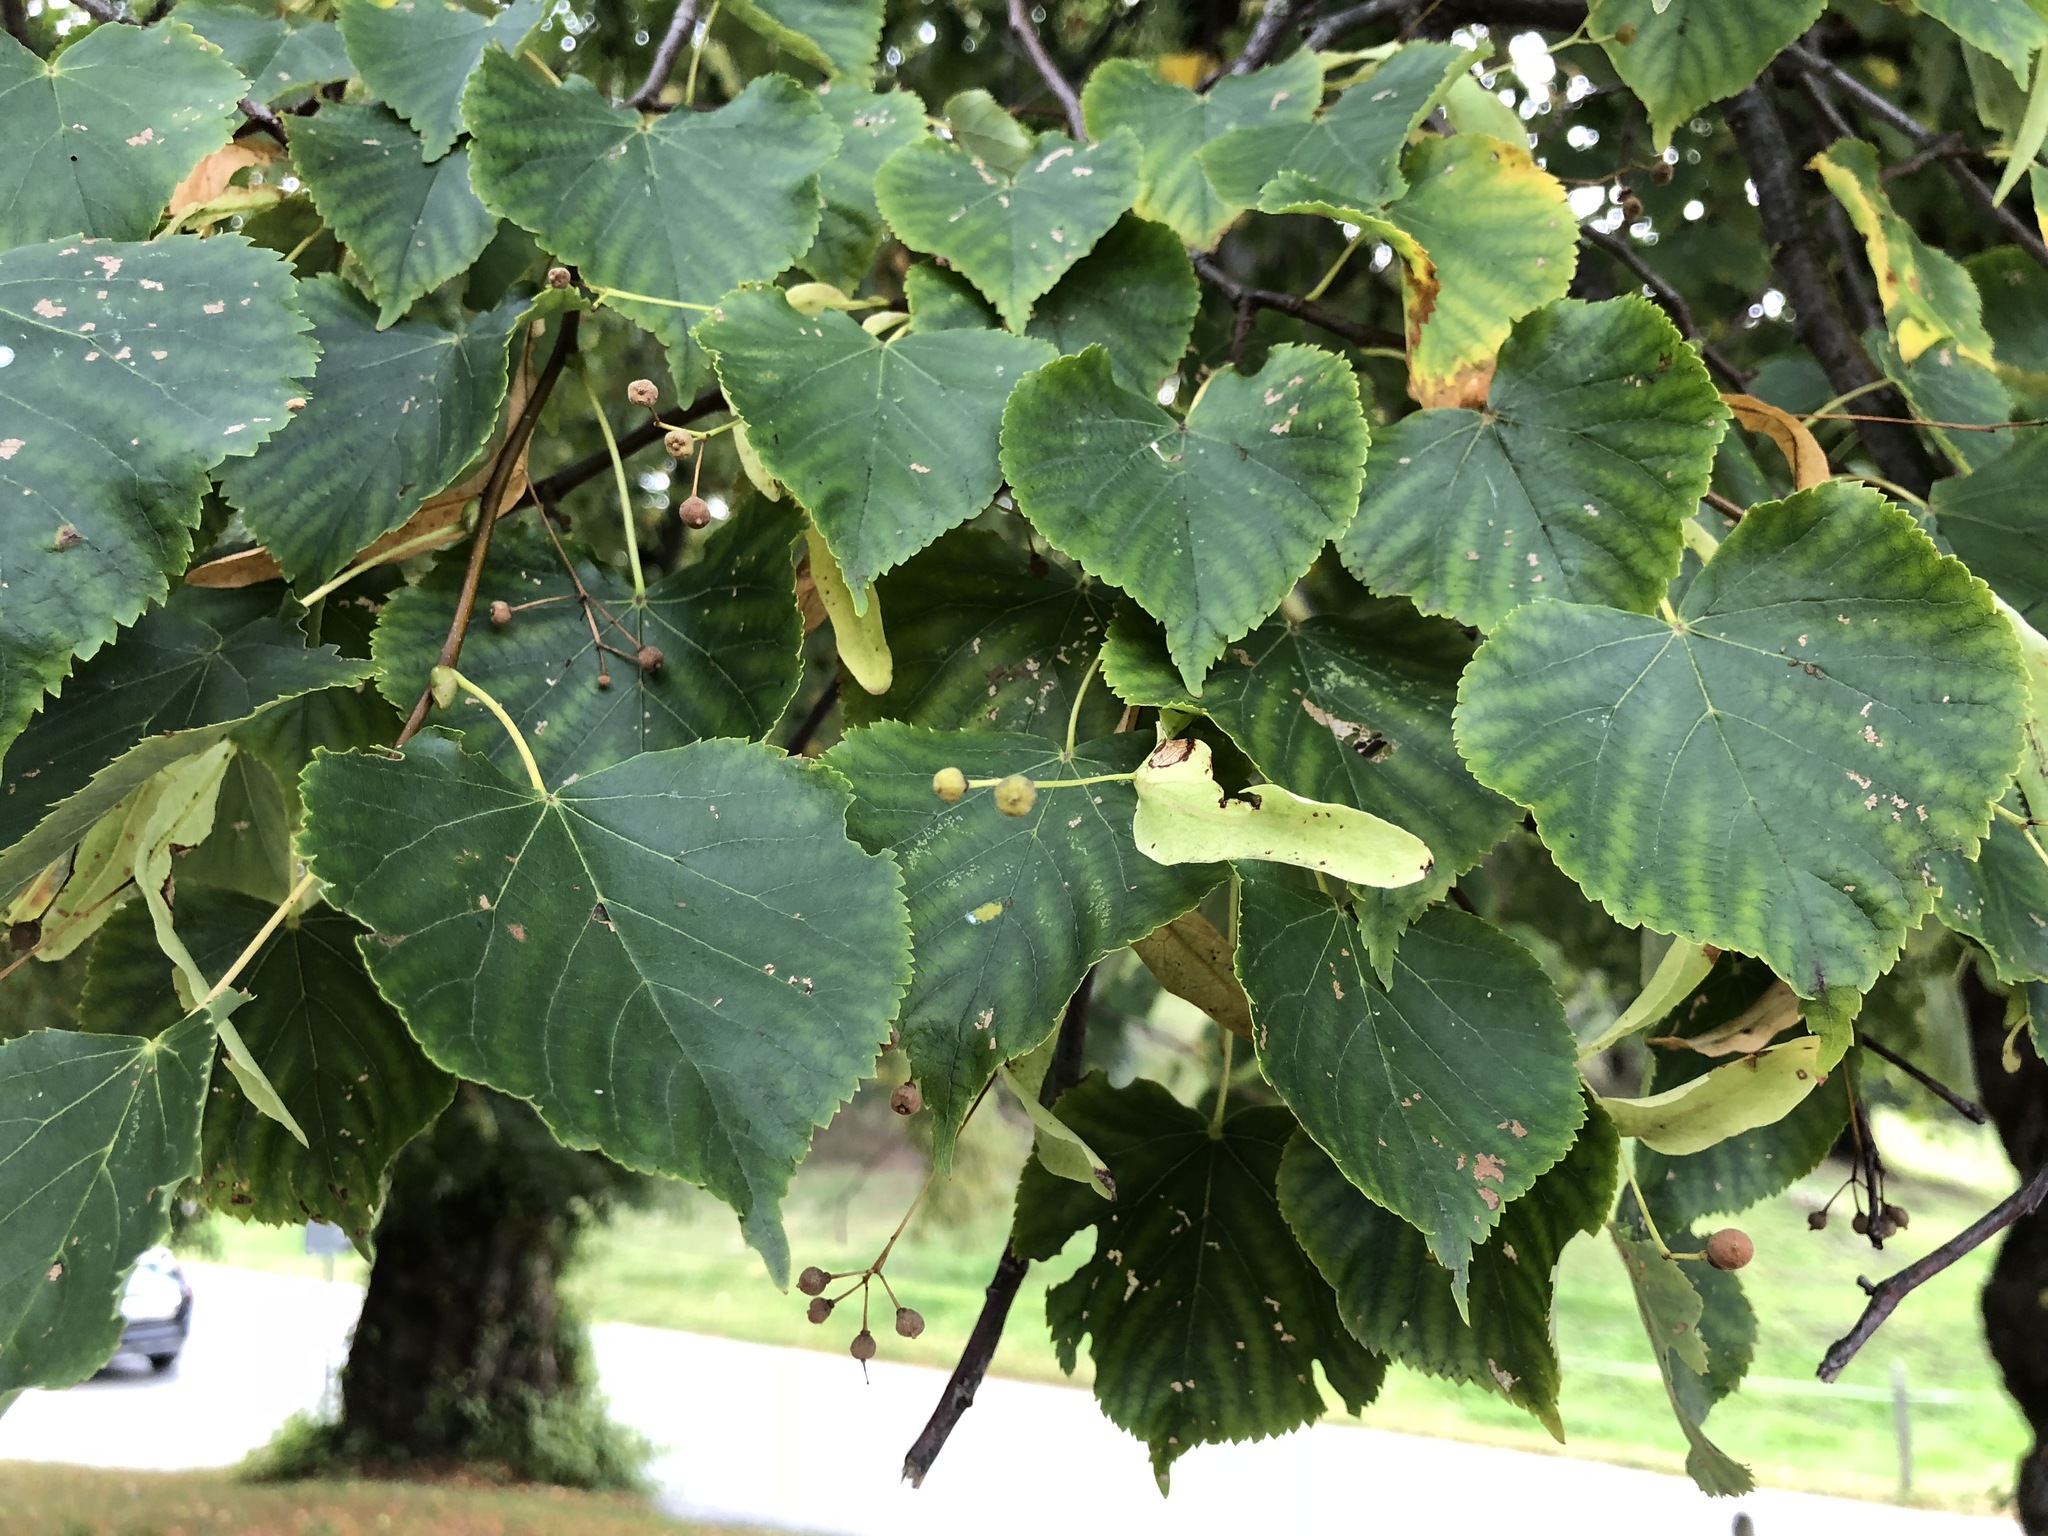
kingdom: Plantae
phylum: Tracheophyta
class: Magnoliopsida
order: Malvales
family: Malvaceae
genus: Tilia
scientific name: Tilia cordata
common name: Small-leaved lime
